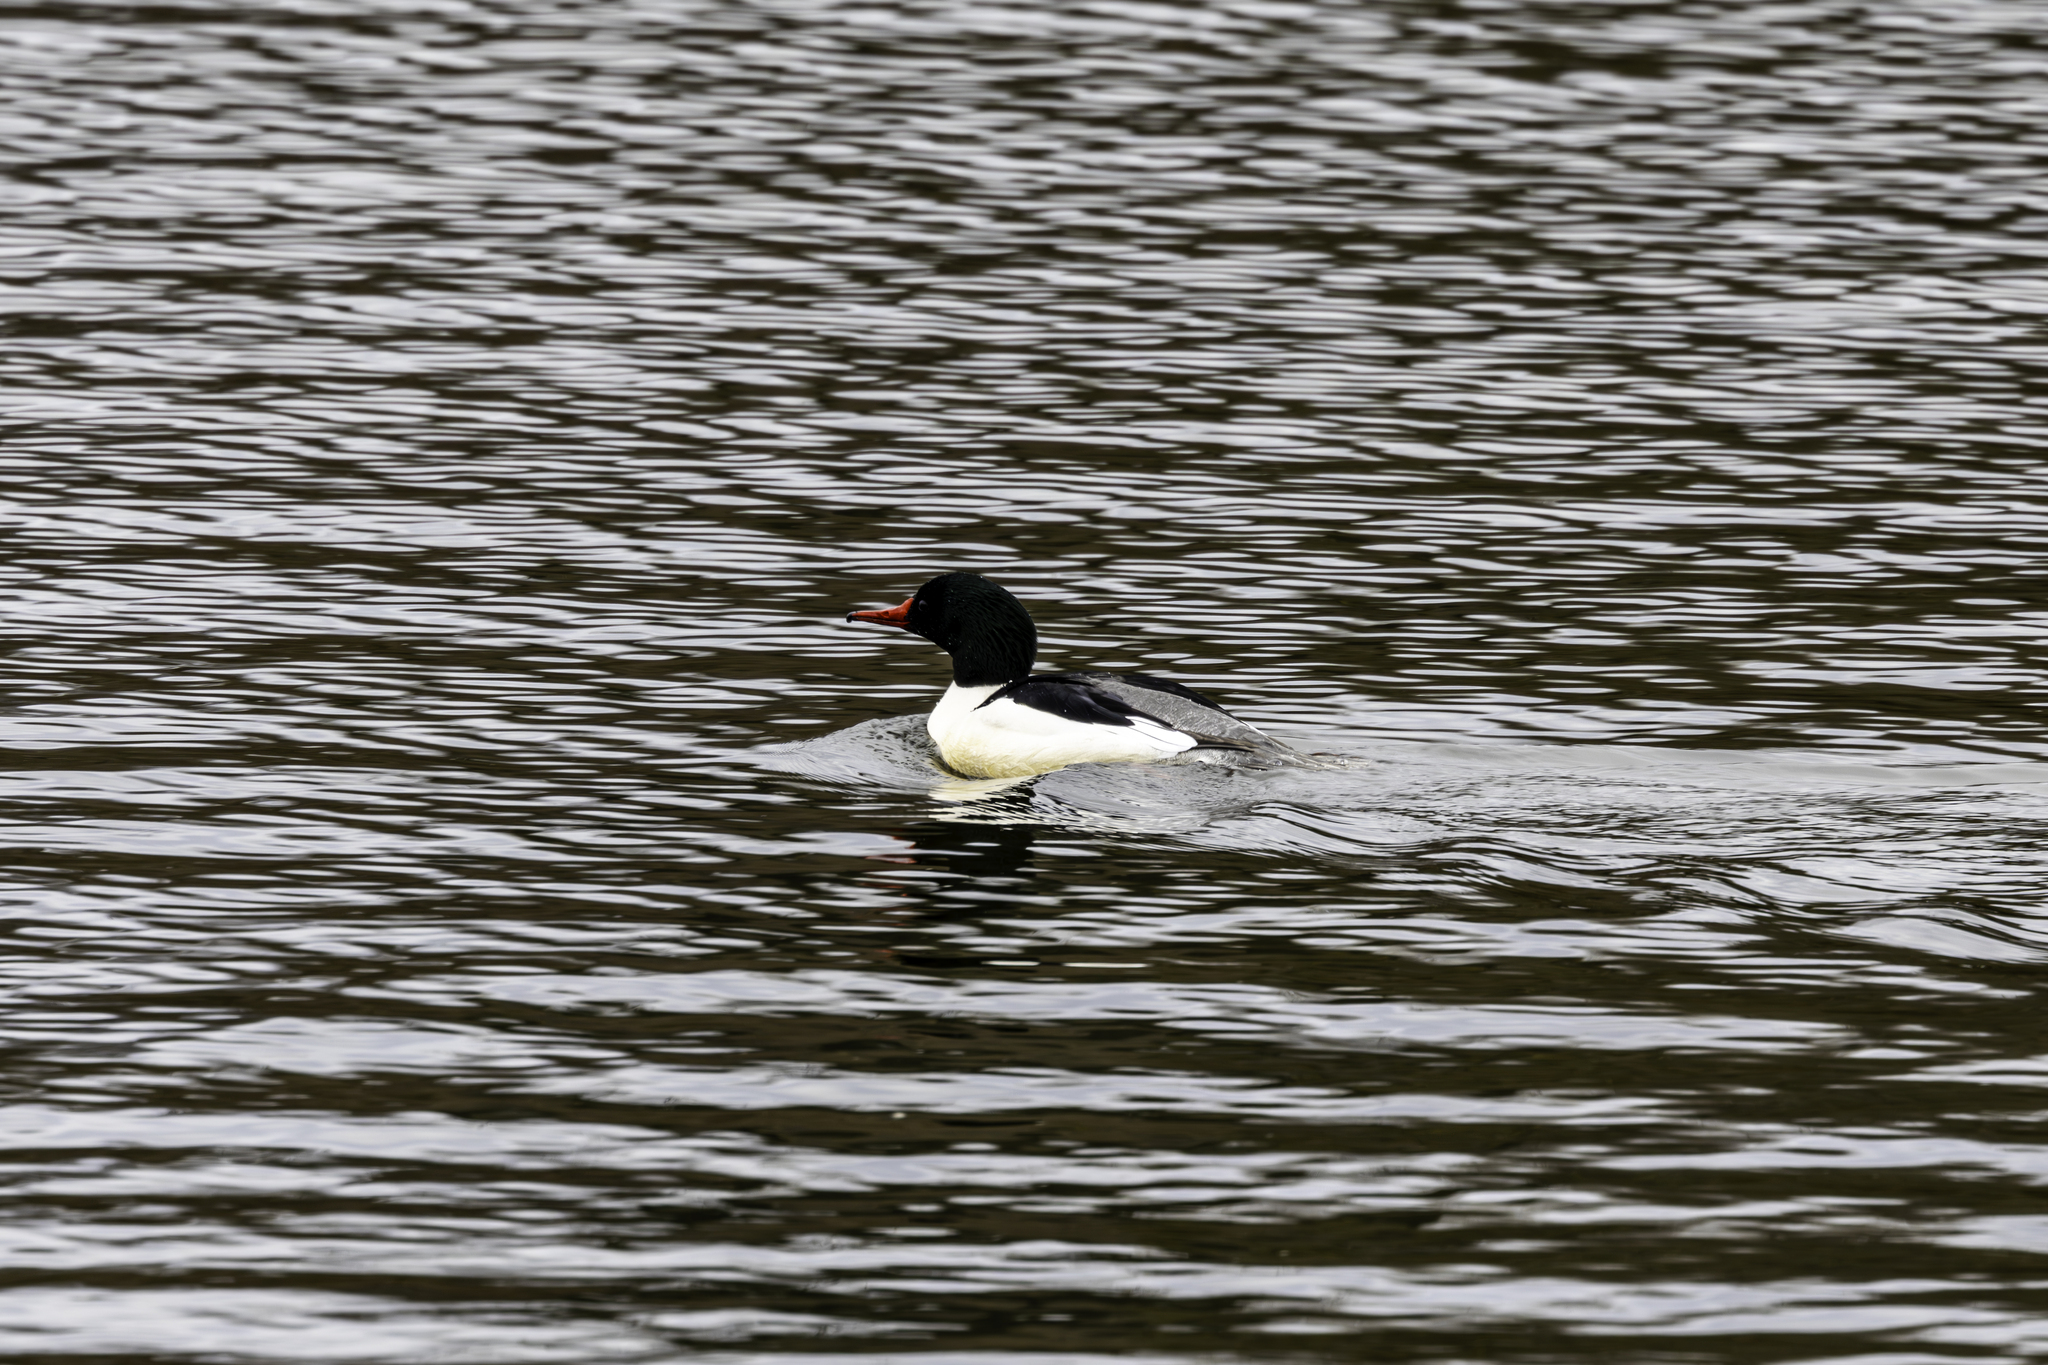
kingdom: Animalia
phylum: Chordata
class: Aves
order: Anseriformes
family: Anatidae
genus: Mergus
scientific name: Mergus merganser
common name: Common merganser
